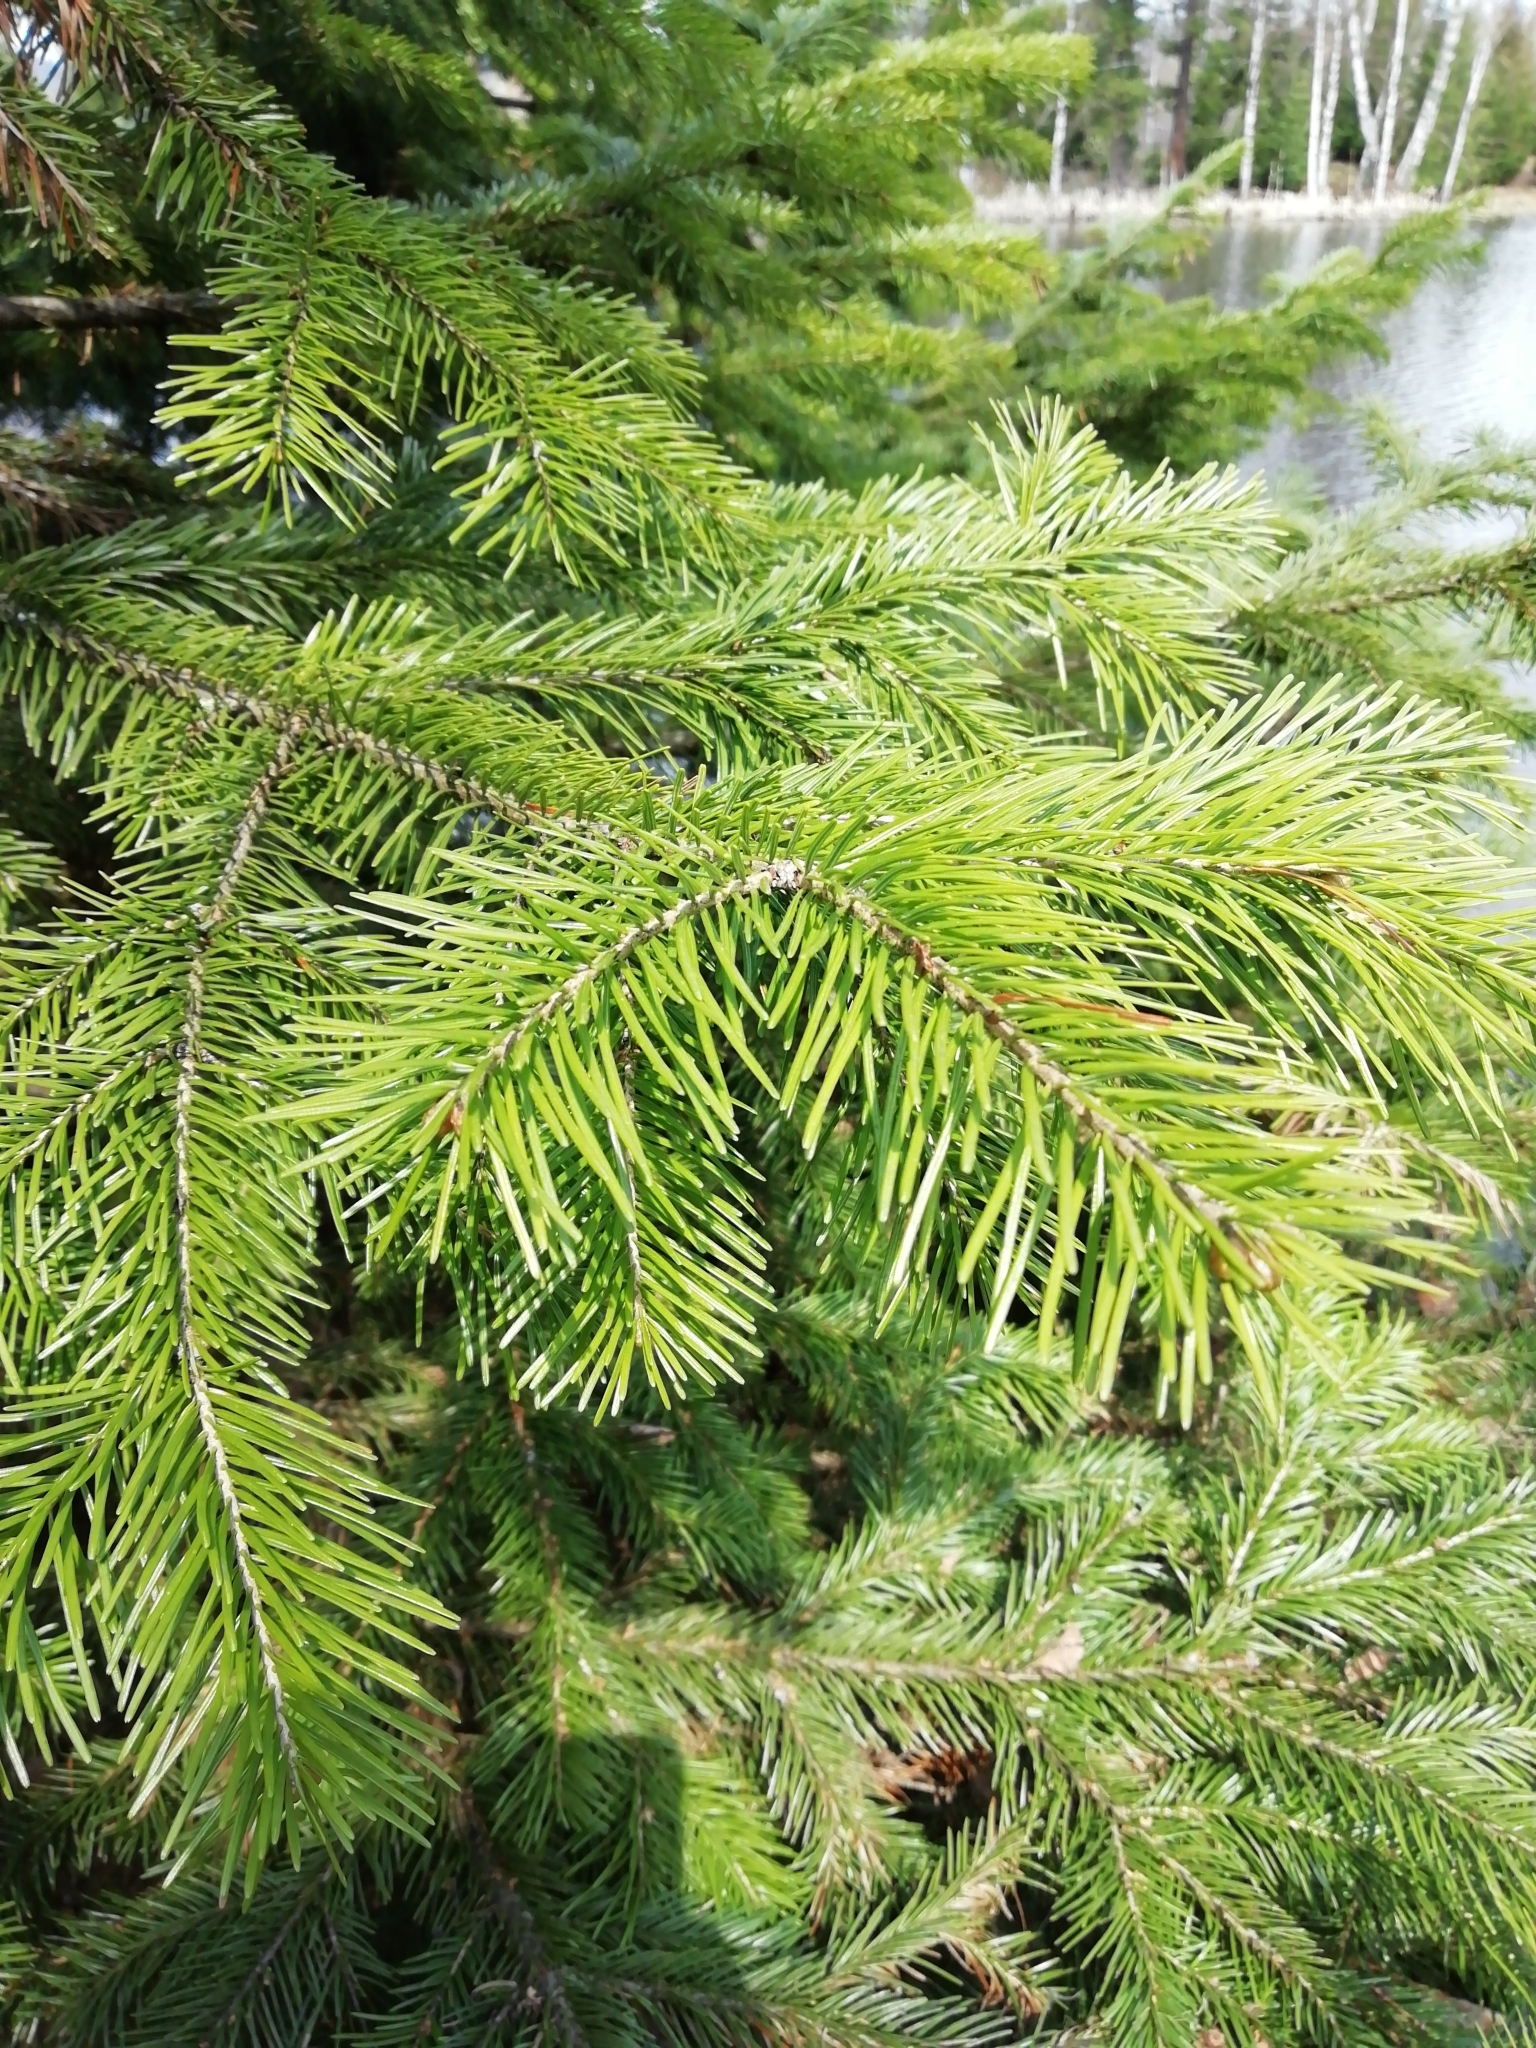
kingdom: Plantae
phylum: Tracheophyta
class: Pinopsida
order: Pinales
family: Pinaceae
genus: Abies
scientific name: Abies sibirica
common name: Siberian fir
